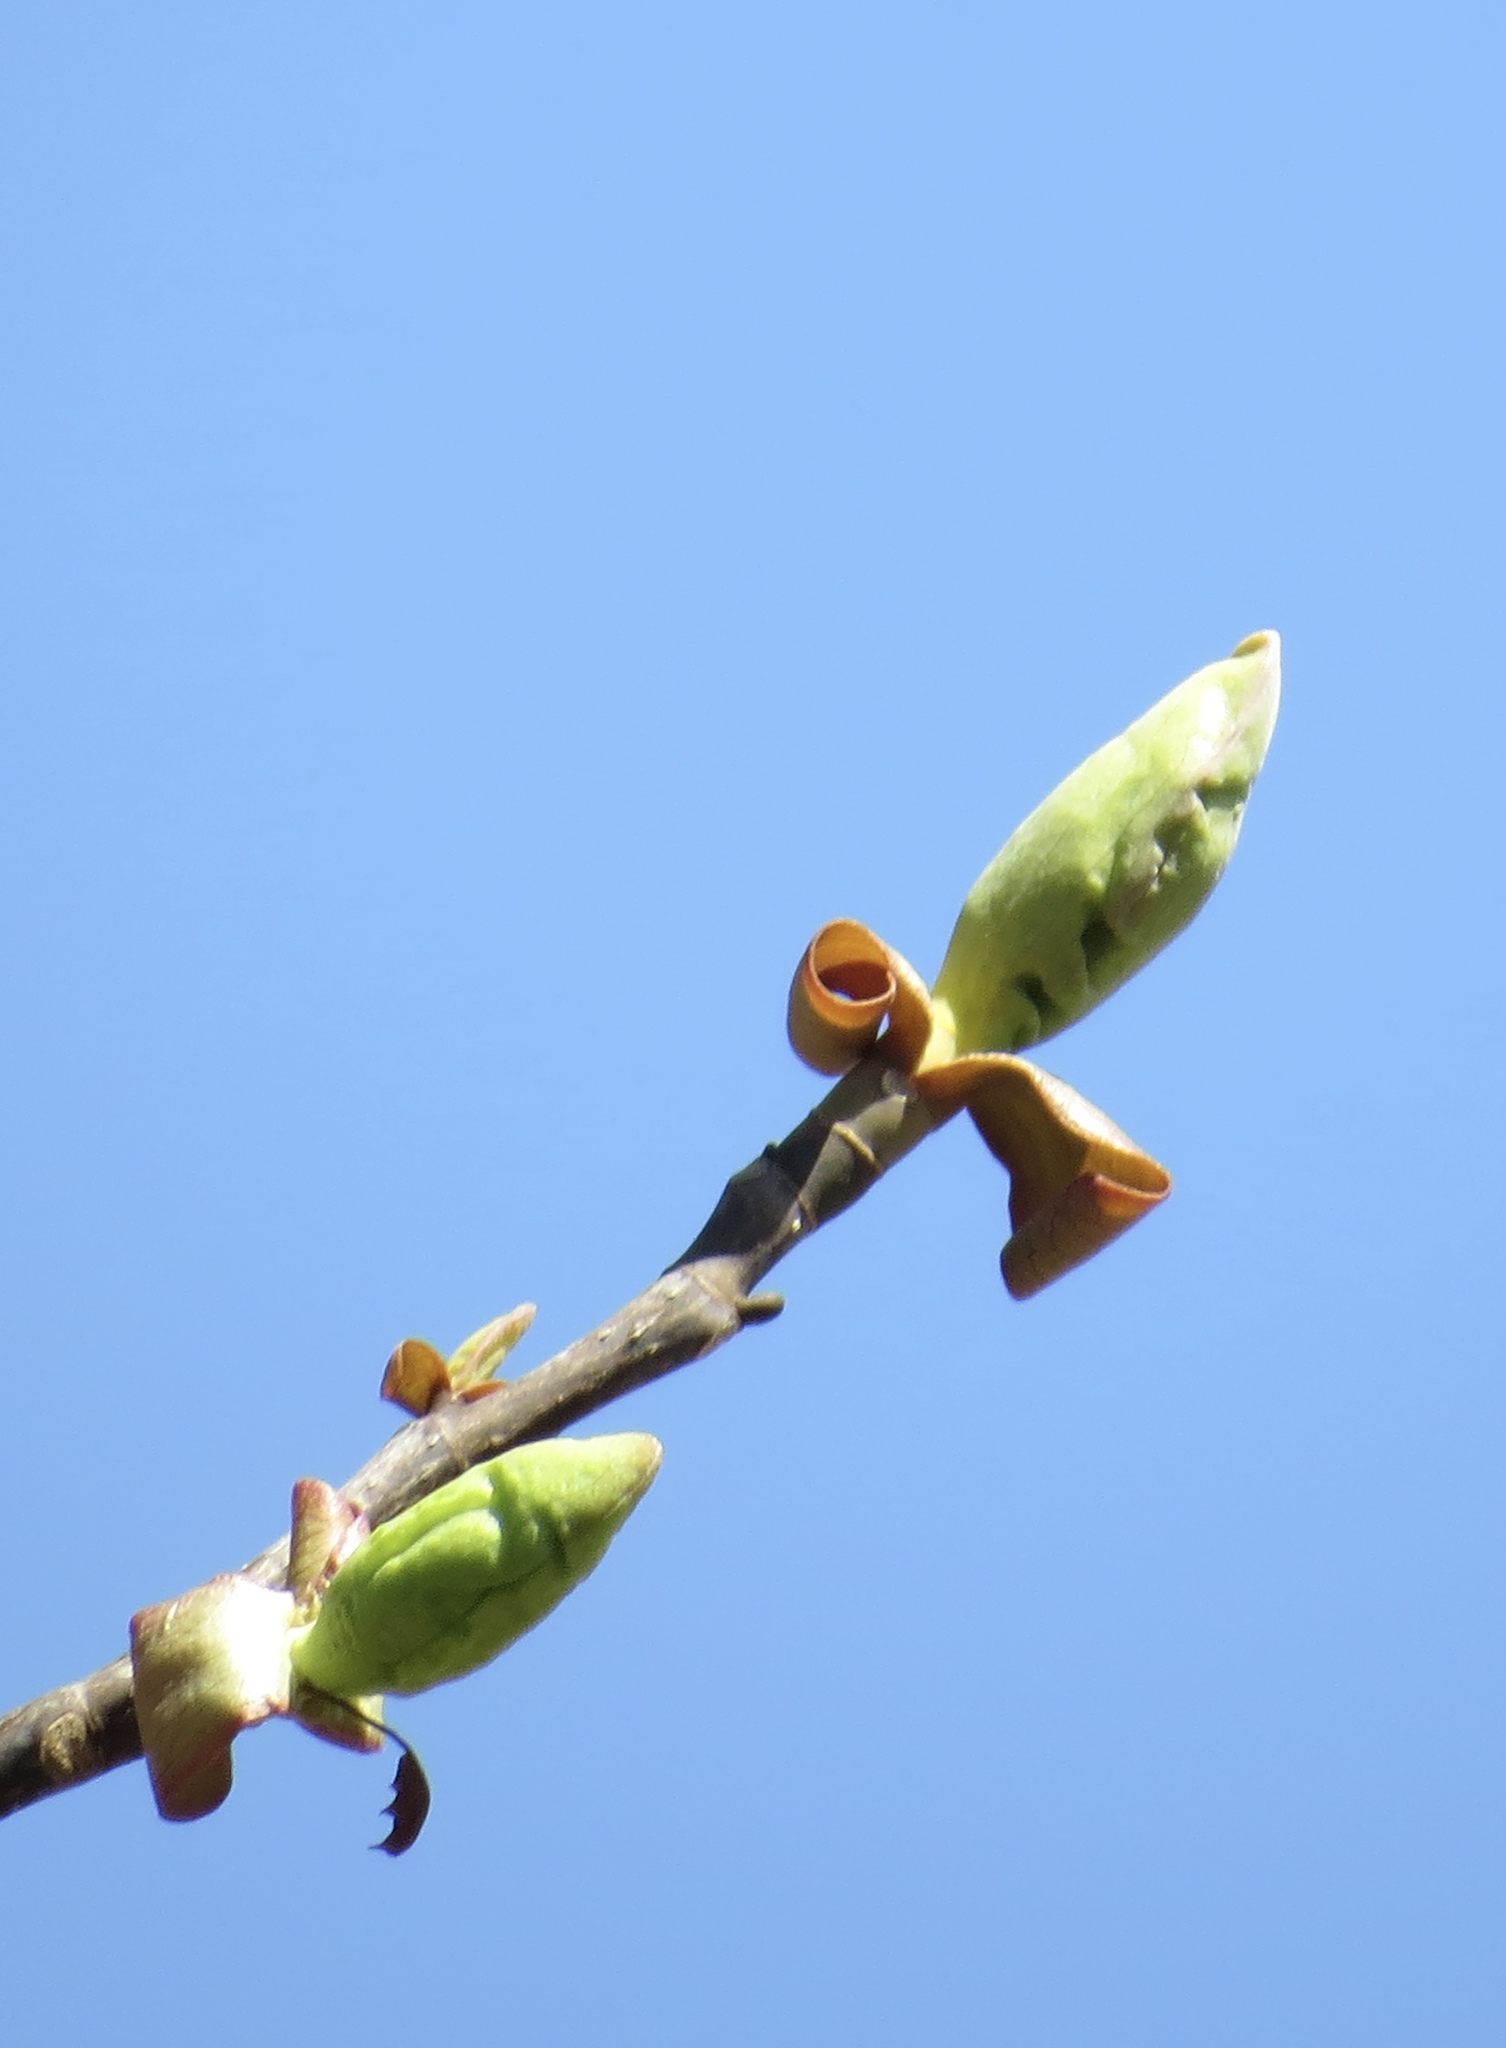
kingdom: Plantae
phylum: Tracheophyta
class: Magnoliopsida
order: Magnoliales
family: Magnoliaceae
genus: Liriodendron
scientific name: Liriodendron tulipifera
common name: Tulip tree
